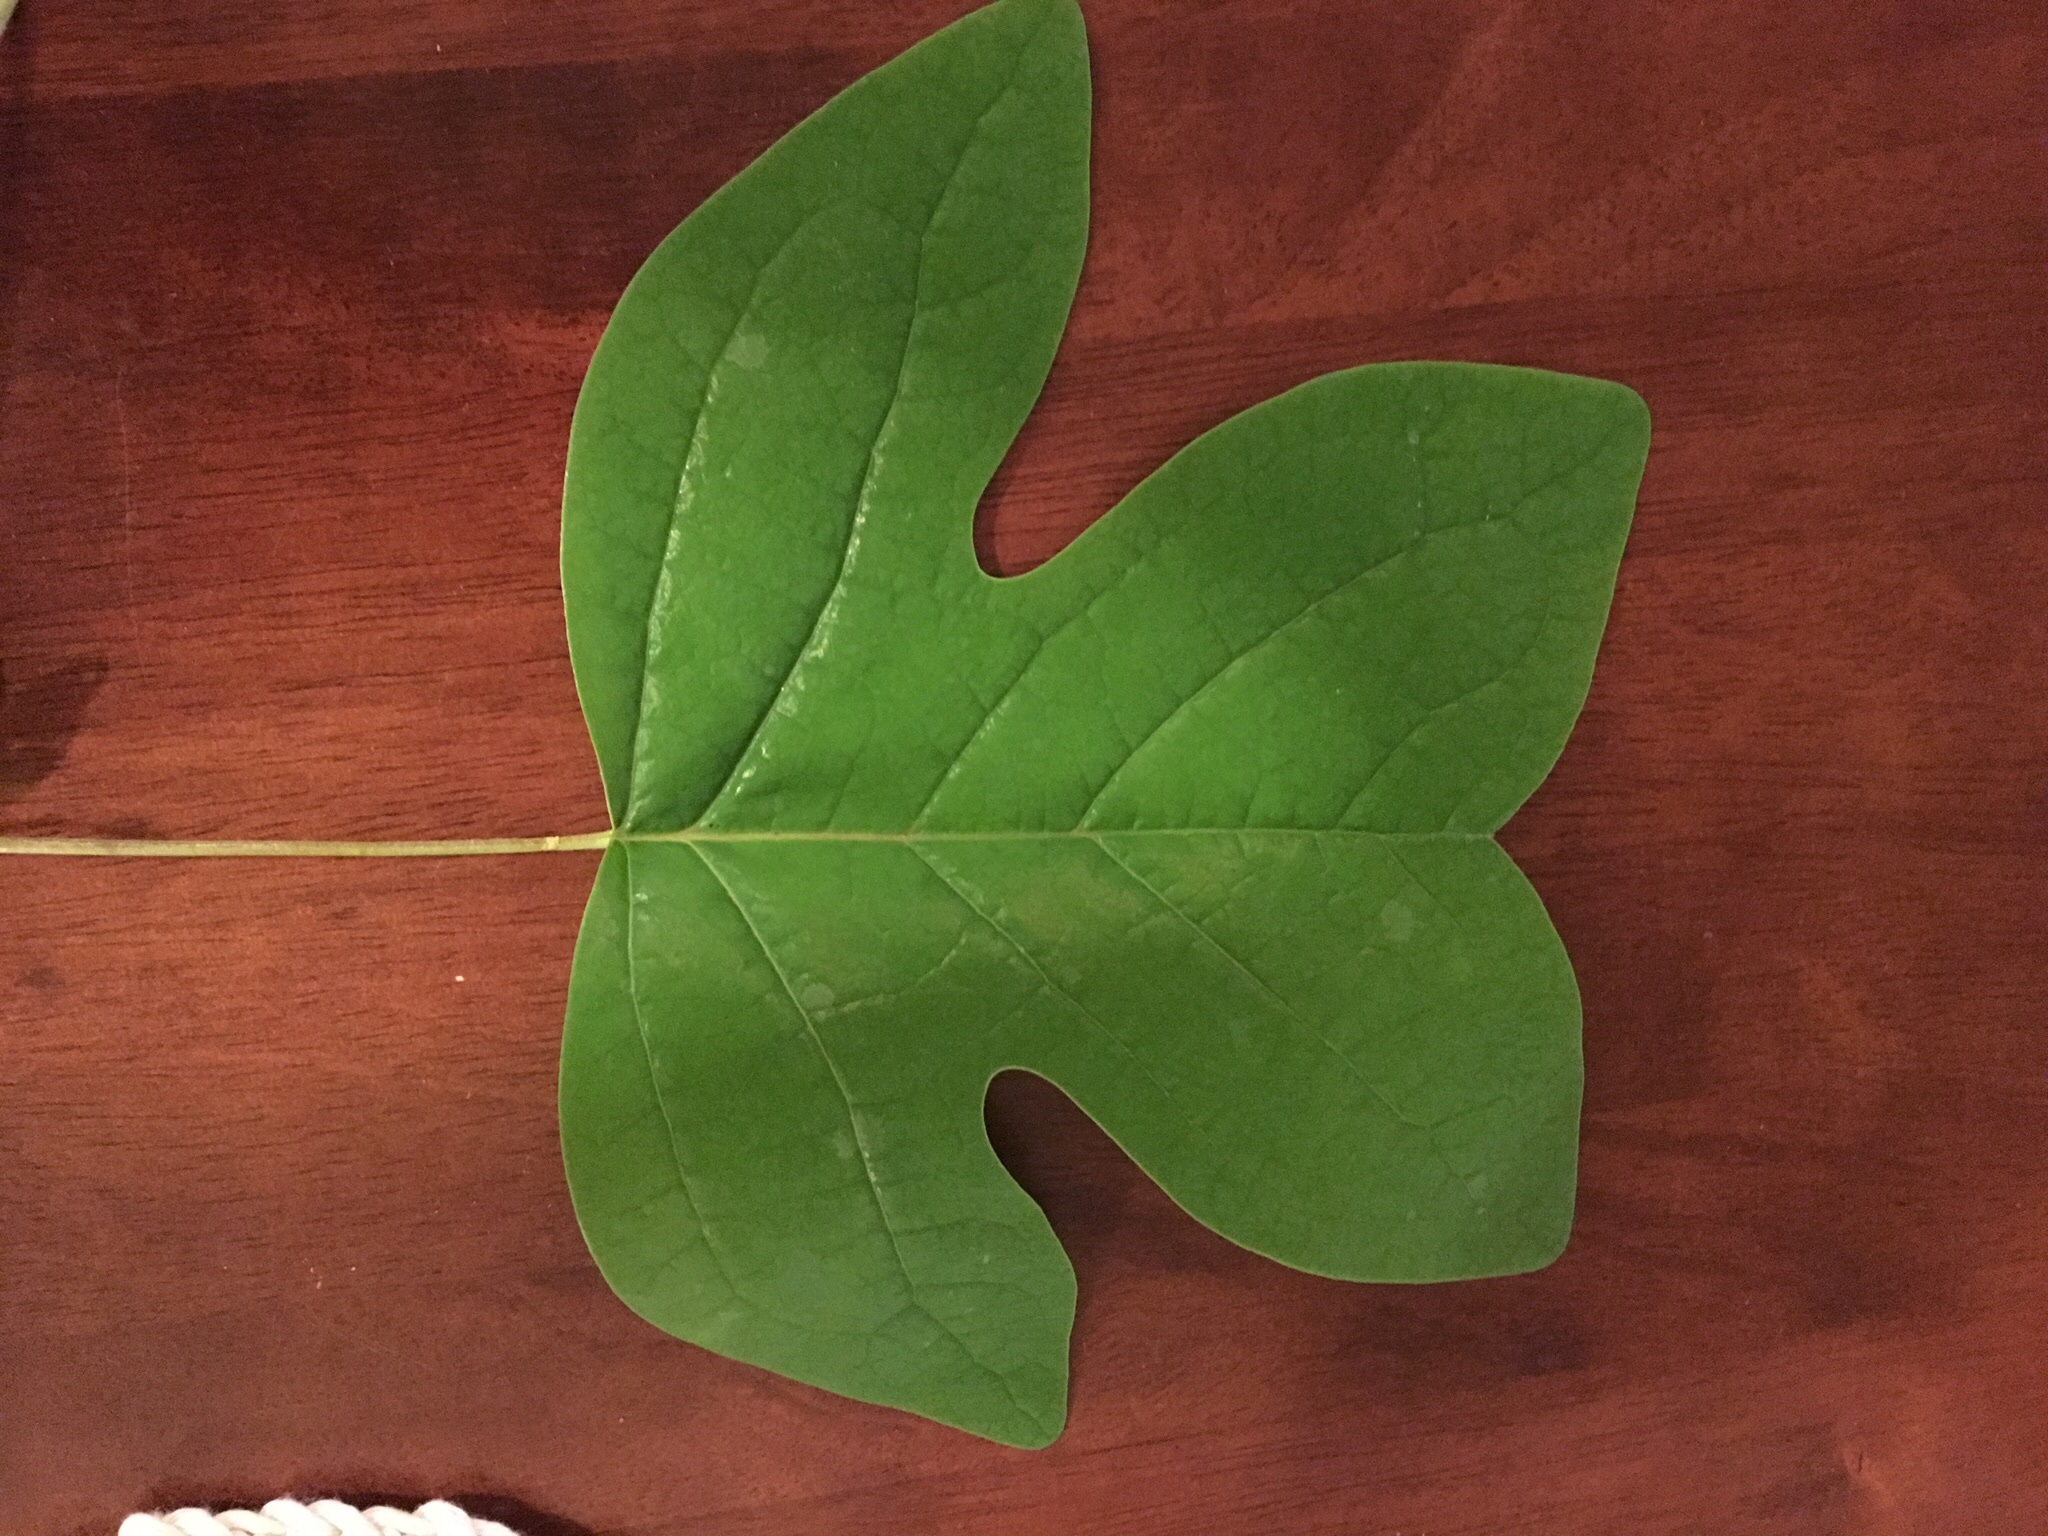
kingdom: Plantae
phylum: Tracheophyta
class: Magnoliopsida
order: Magnoliales
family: Magnoliaceae
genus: Liriodendron
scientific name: Liriodendron tulipifera
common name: Tulip tree
